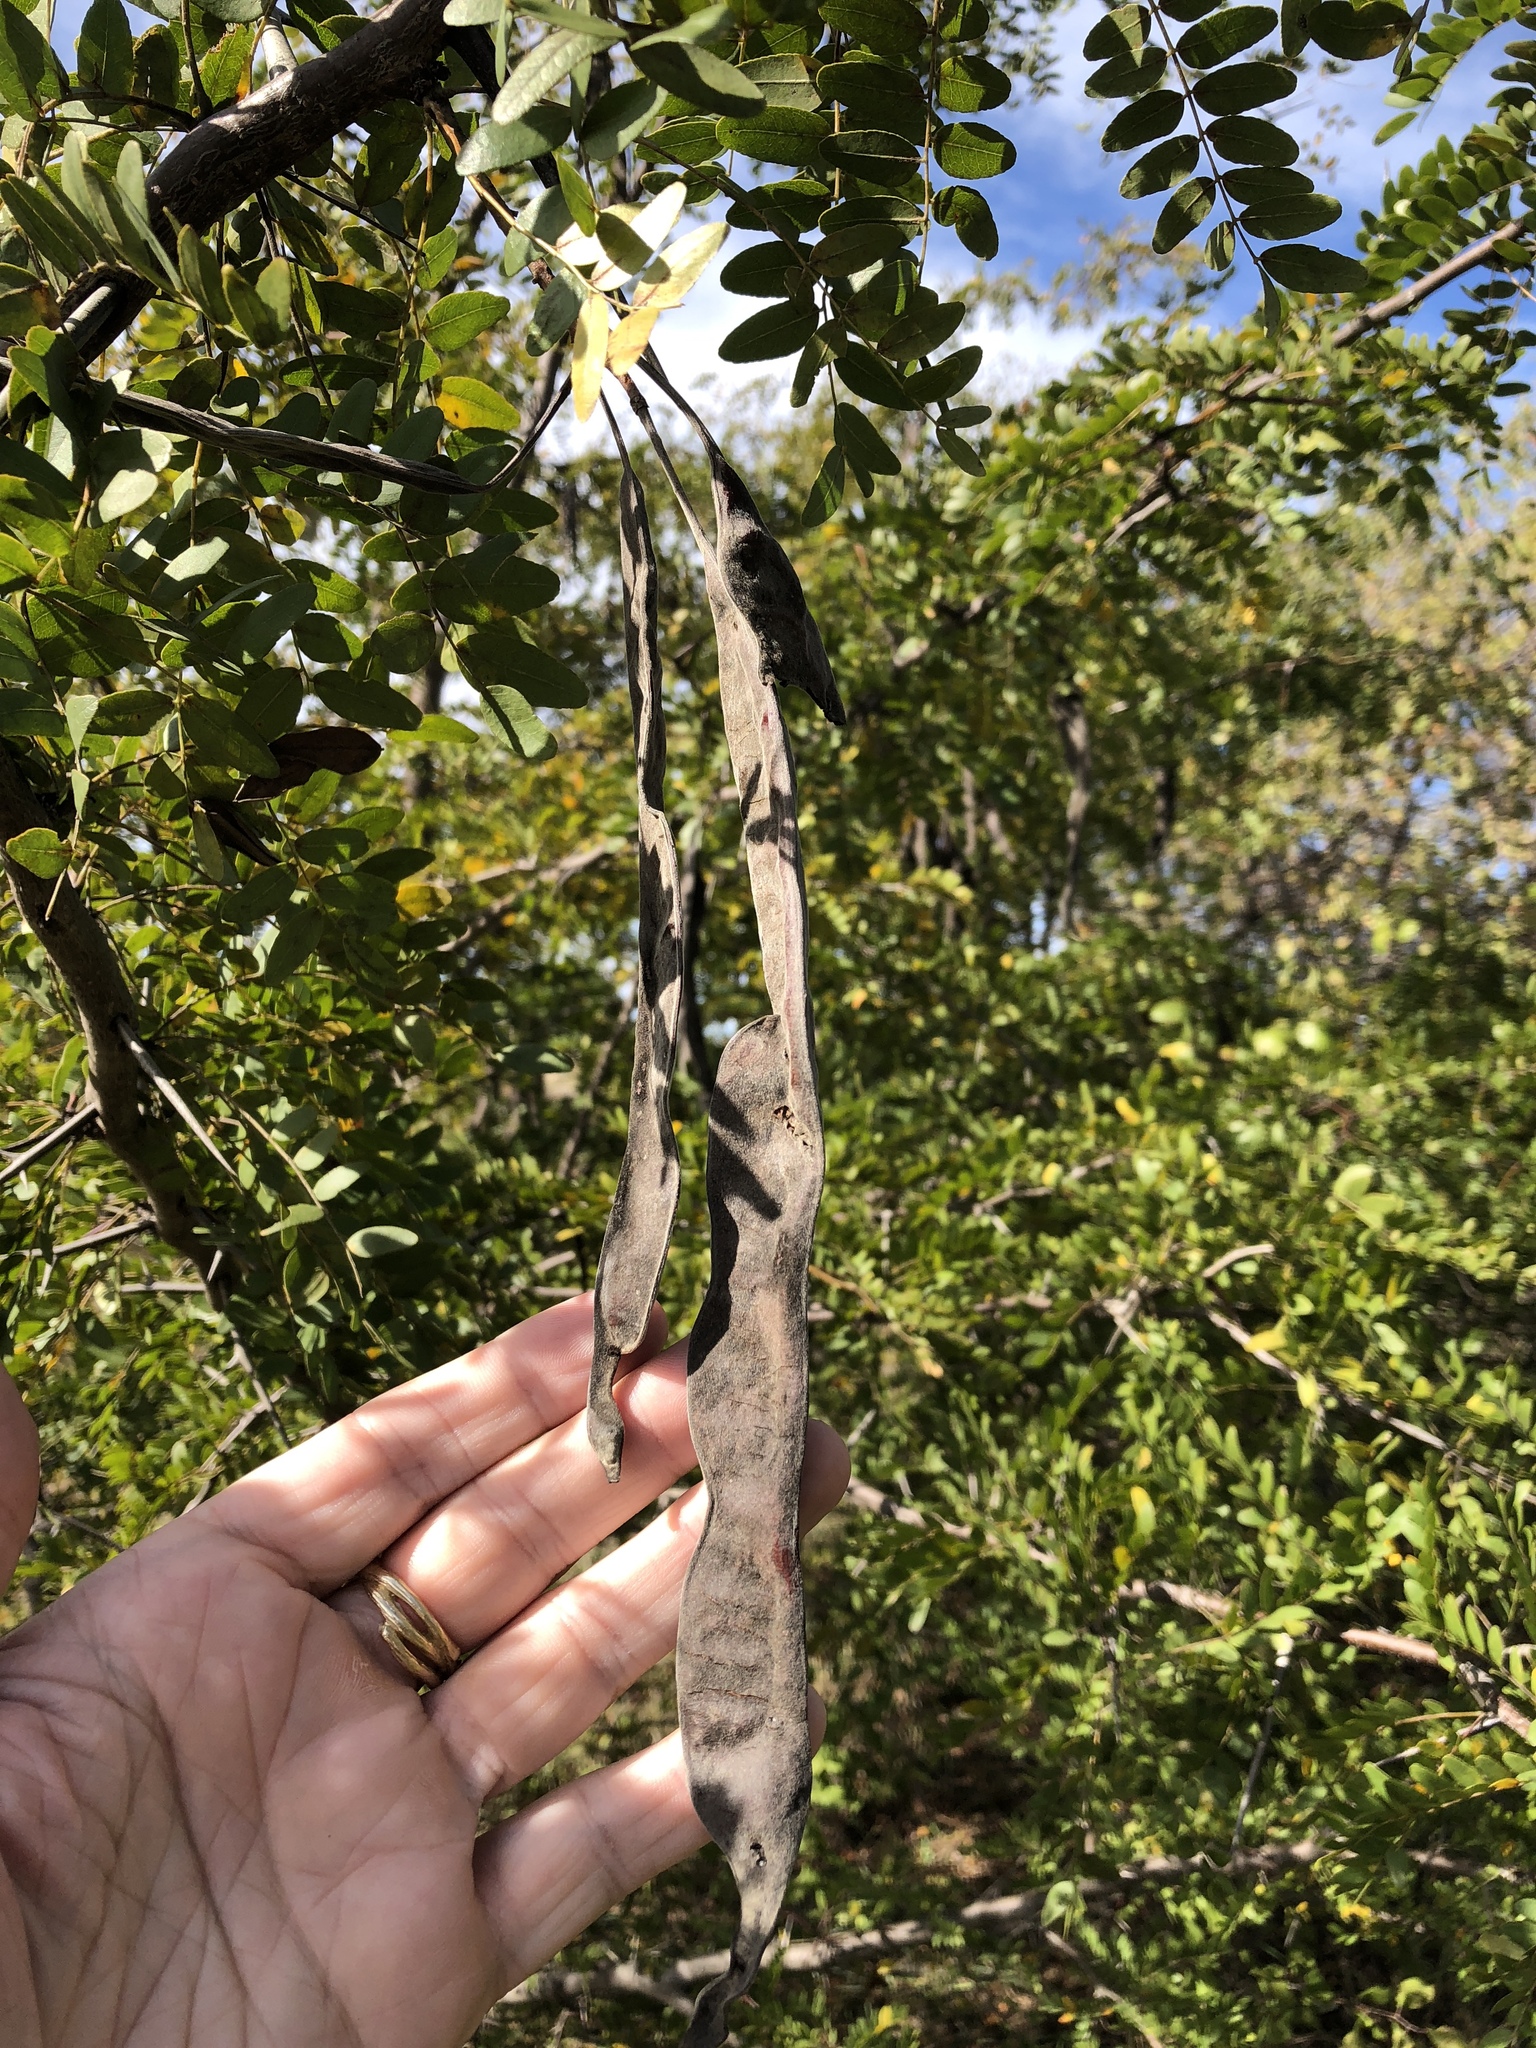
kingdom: Plantae
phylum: Tracheophyta
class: Magnoliopsida
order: Fabales
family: Fabaceae
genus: Gleditsia
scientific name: Gleditsia triacanthos
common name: Common honeylocust
